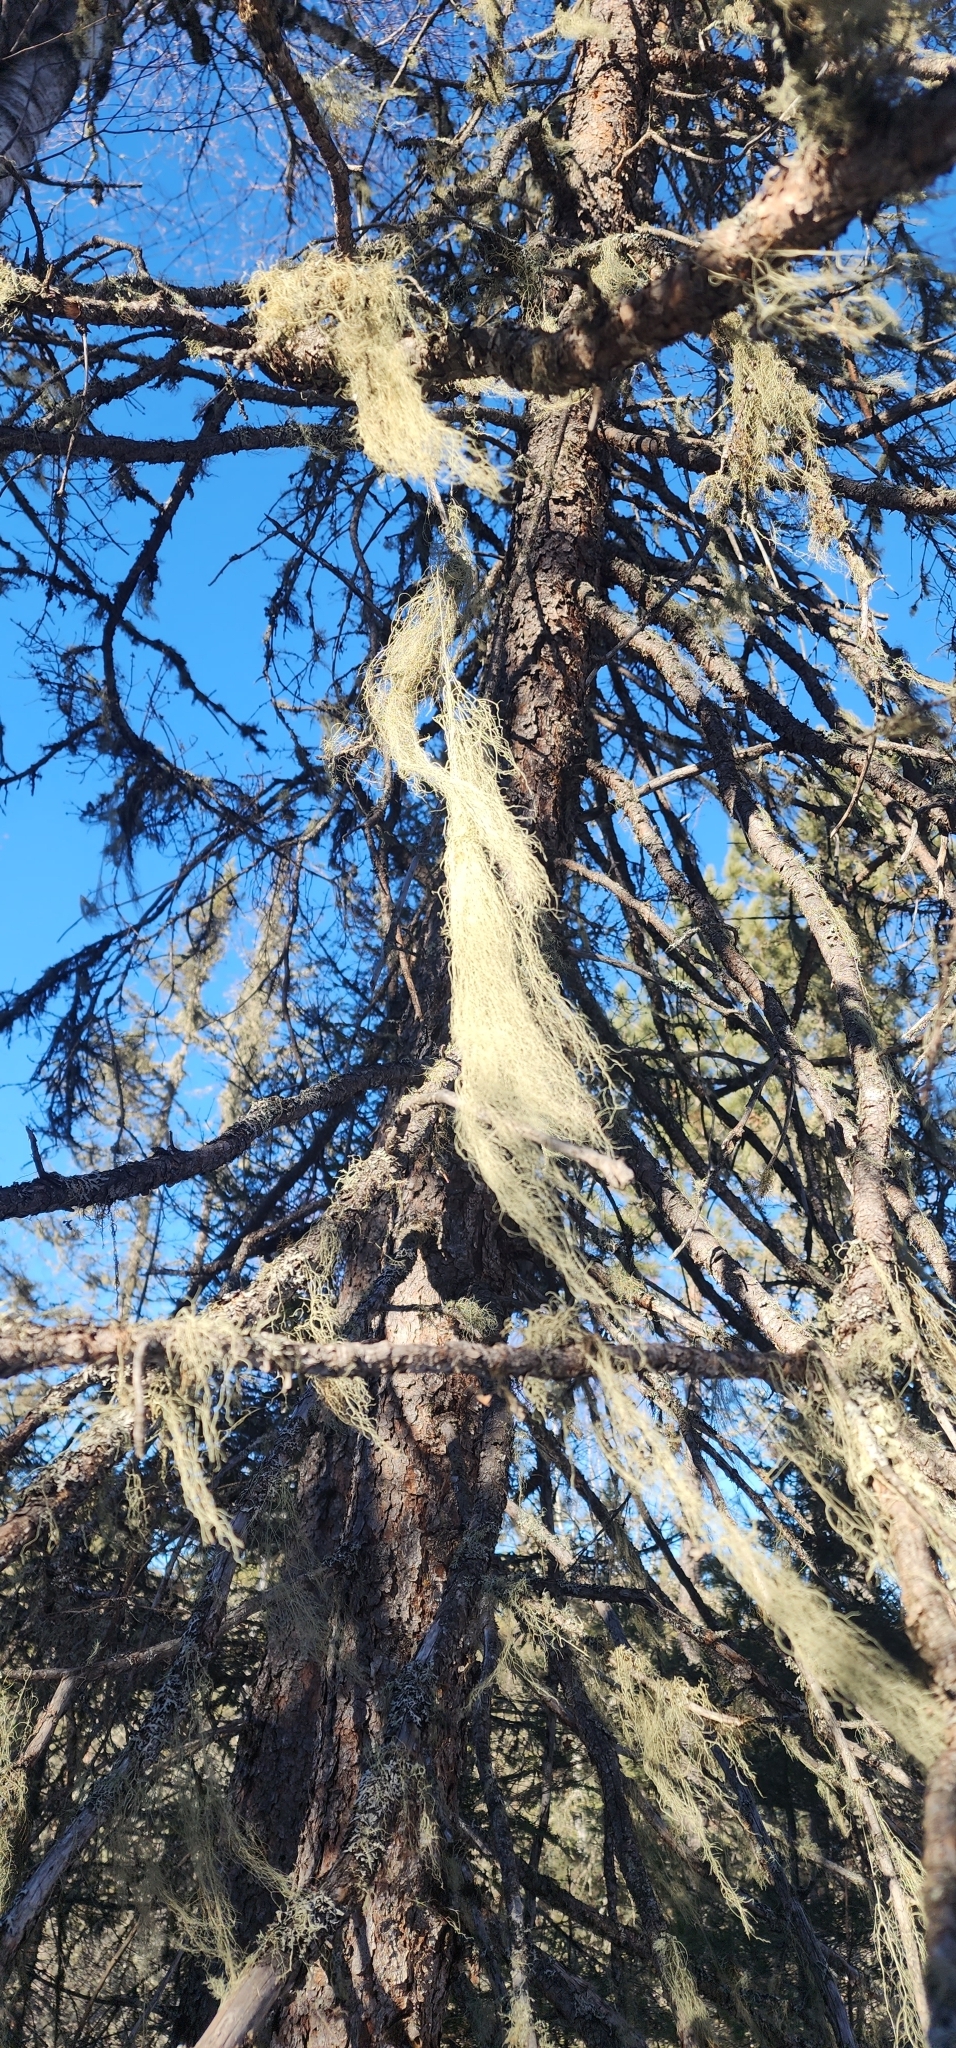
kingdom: Fungi
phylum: Ascomycota
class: Lecanoromycetes
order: Lecanorales
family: Parmeliaceae
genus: Usnea
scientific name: Usnea cavernosa
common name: Pitted beard lichen
